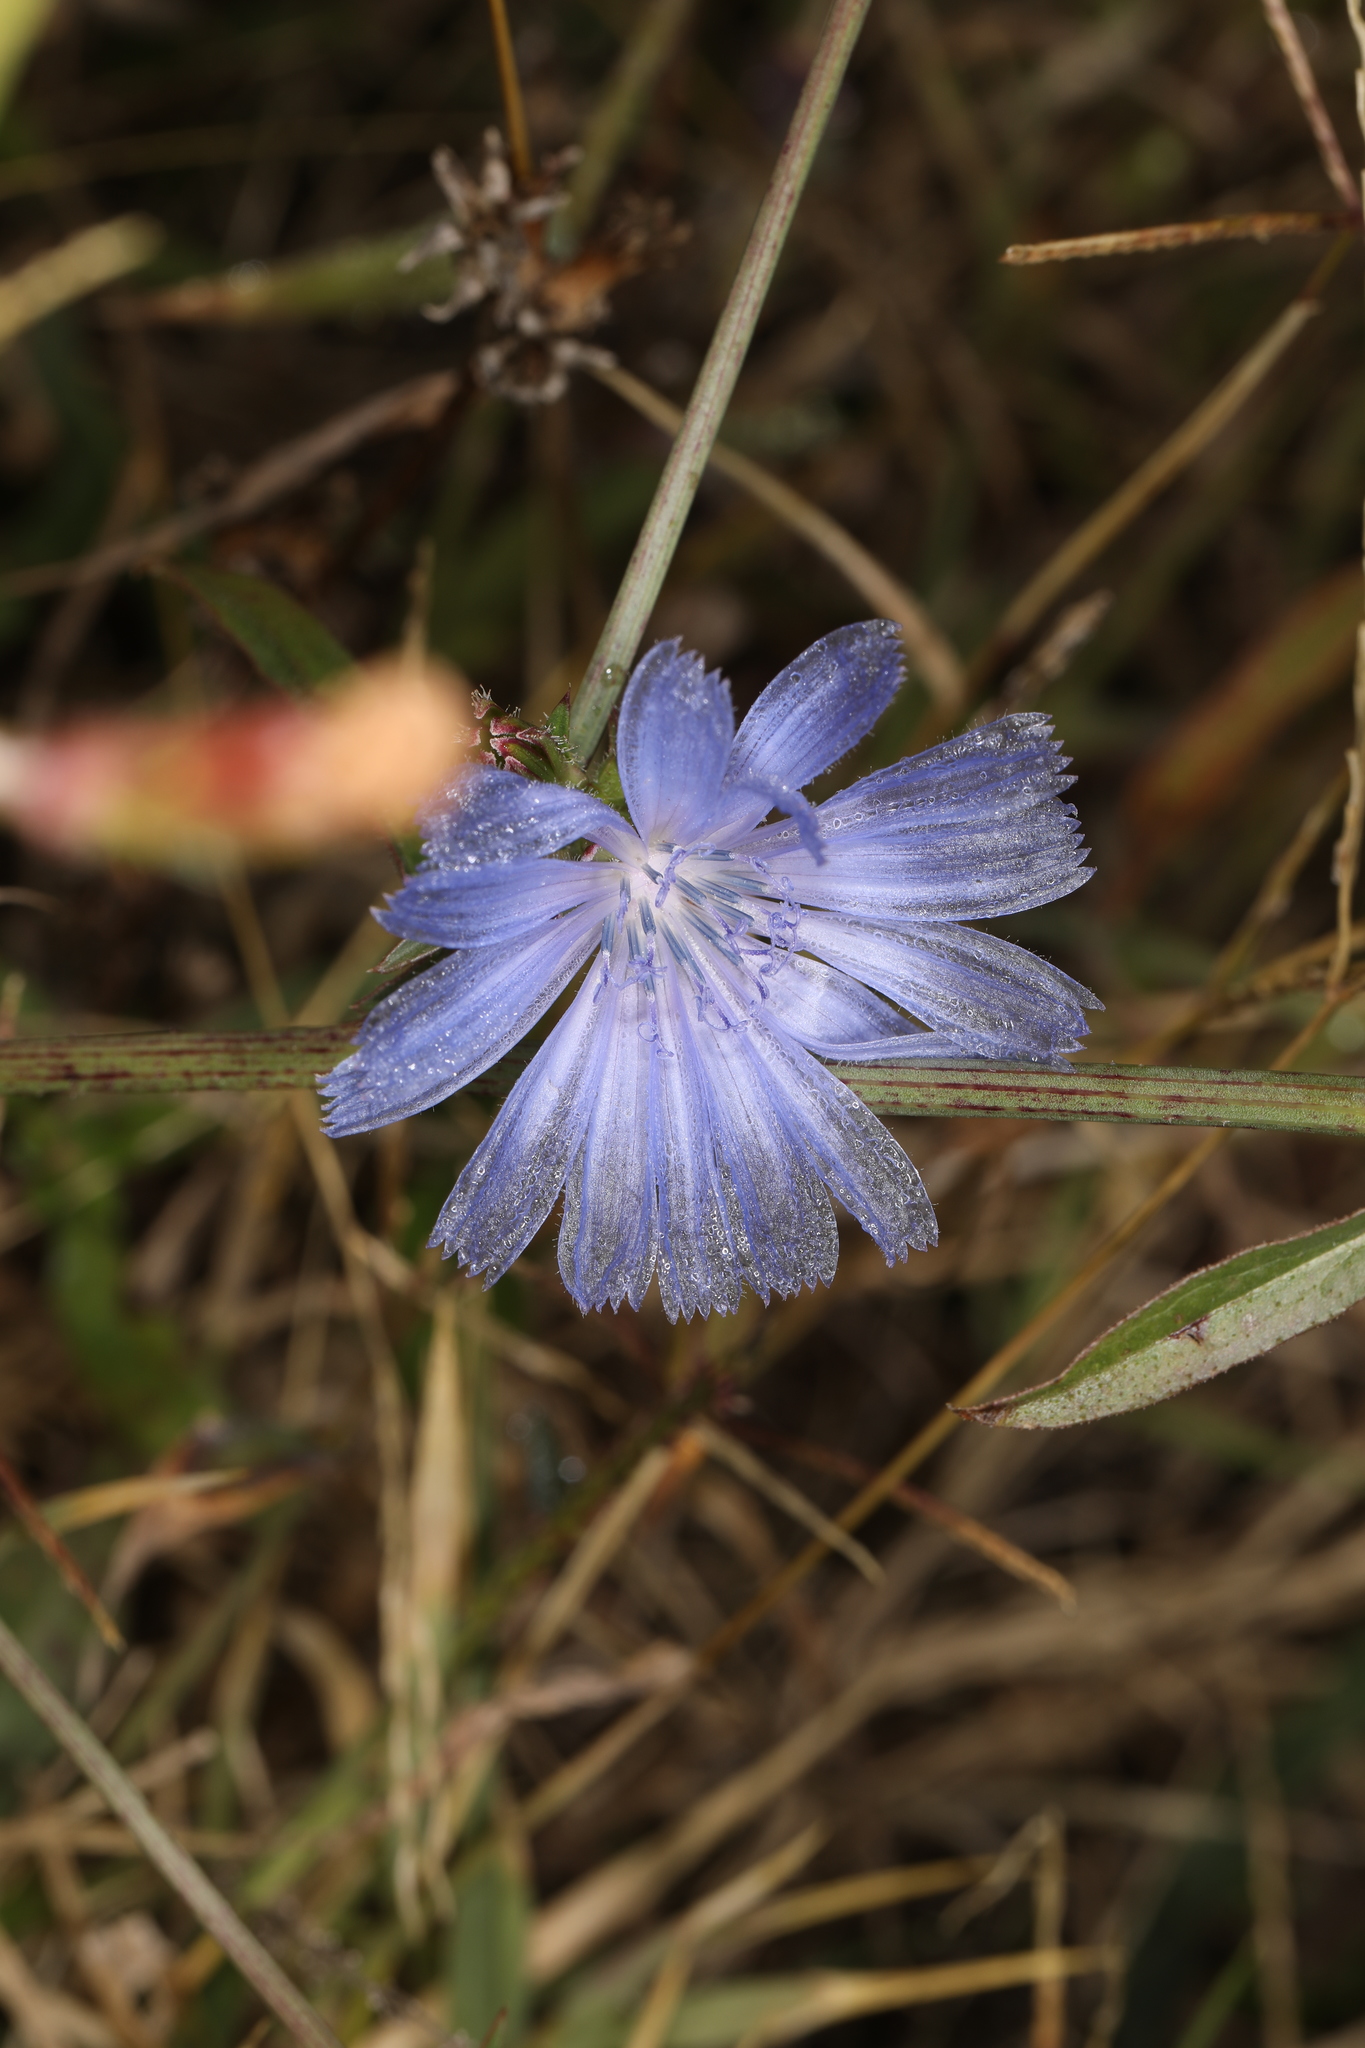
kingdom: Plantae
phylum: Tracheophyta
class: Magnoliopsida
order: Asterales
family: Asteraceae
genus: Cichorium
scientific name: Cichorium intybus
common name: Chicory
